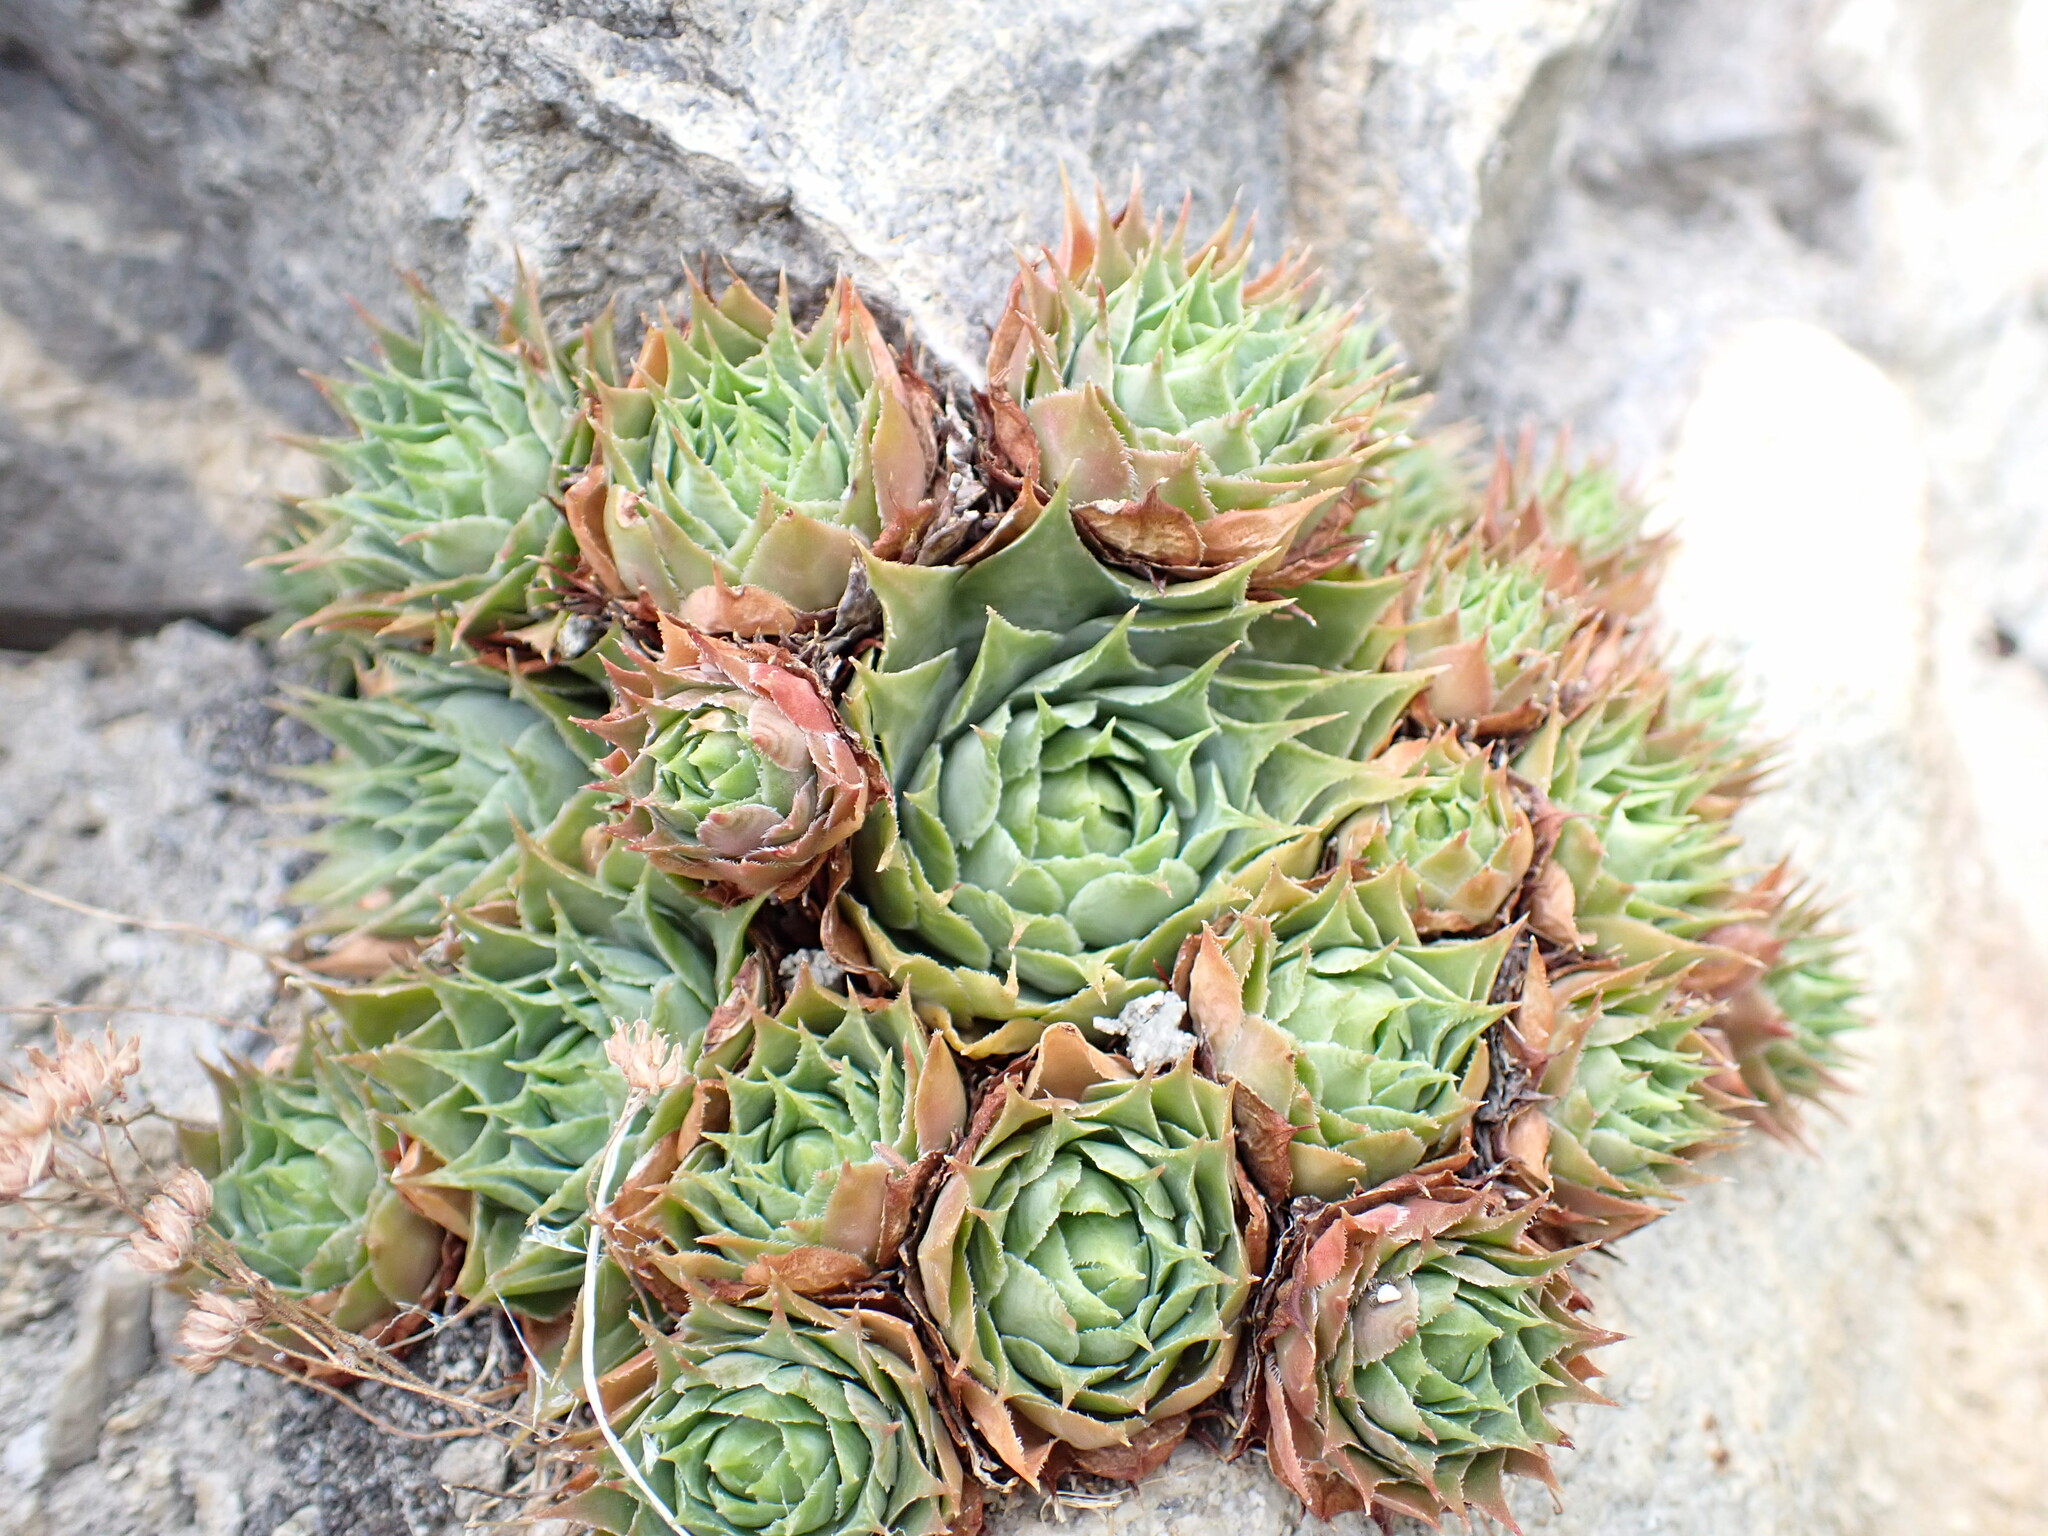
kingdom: Plantae
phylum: Tracheophyta
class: Magnoliopsida
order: Saxifragales
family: Crassulaceae
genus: Sempervivum
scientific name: Sempervivum tectorum
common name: House-leek
